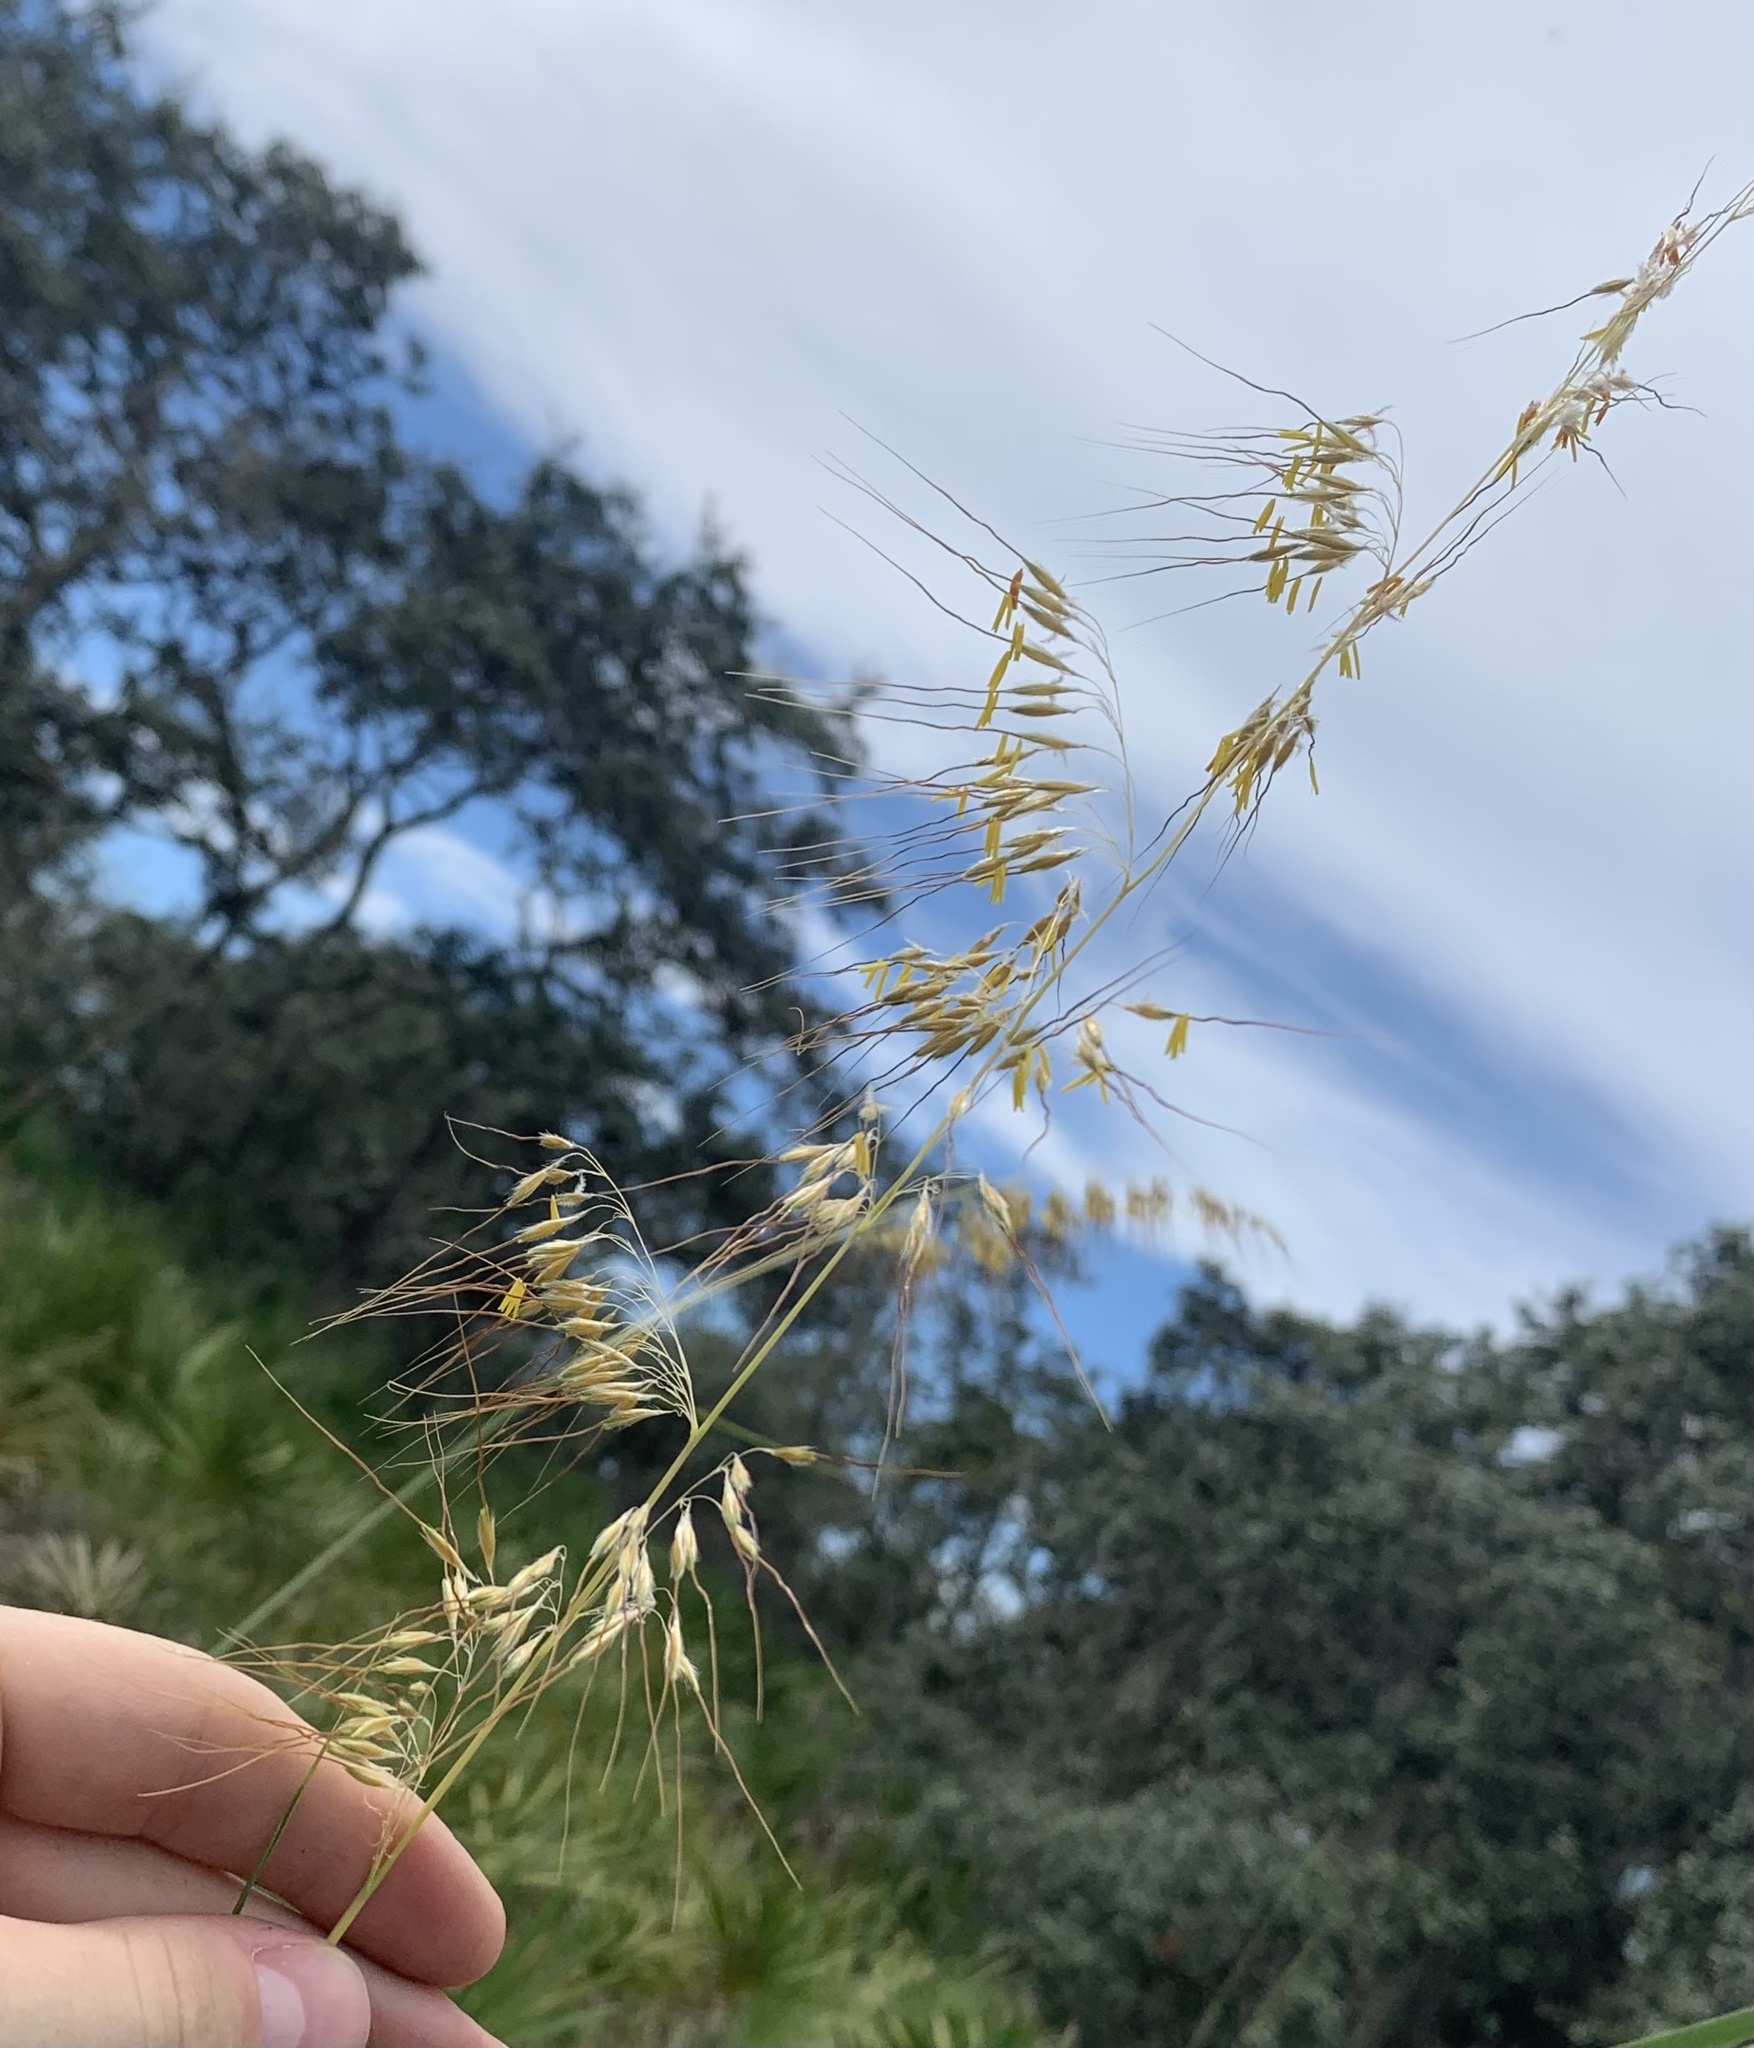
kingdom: Plantae
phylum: Tracheophyta
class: Liliopsida
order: Poales
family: Poaceae
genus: Sorghastrum
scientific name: Sorghastrum secundum
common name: Lopsided indian grass
